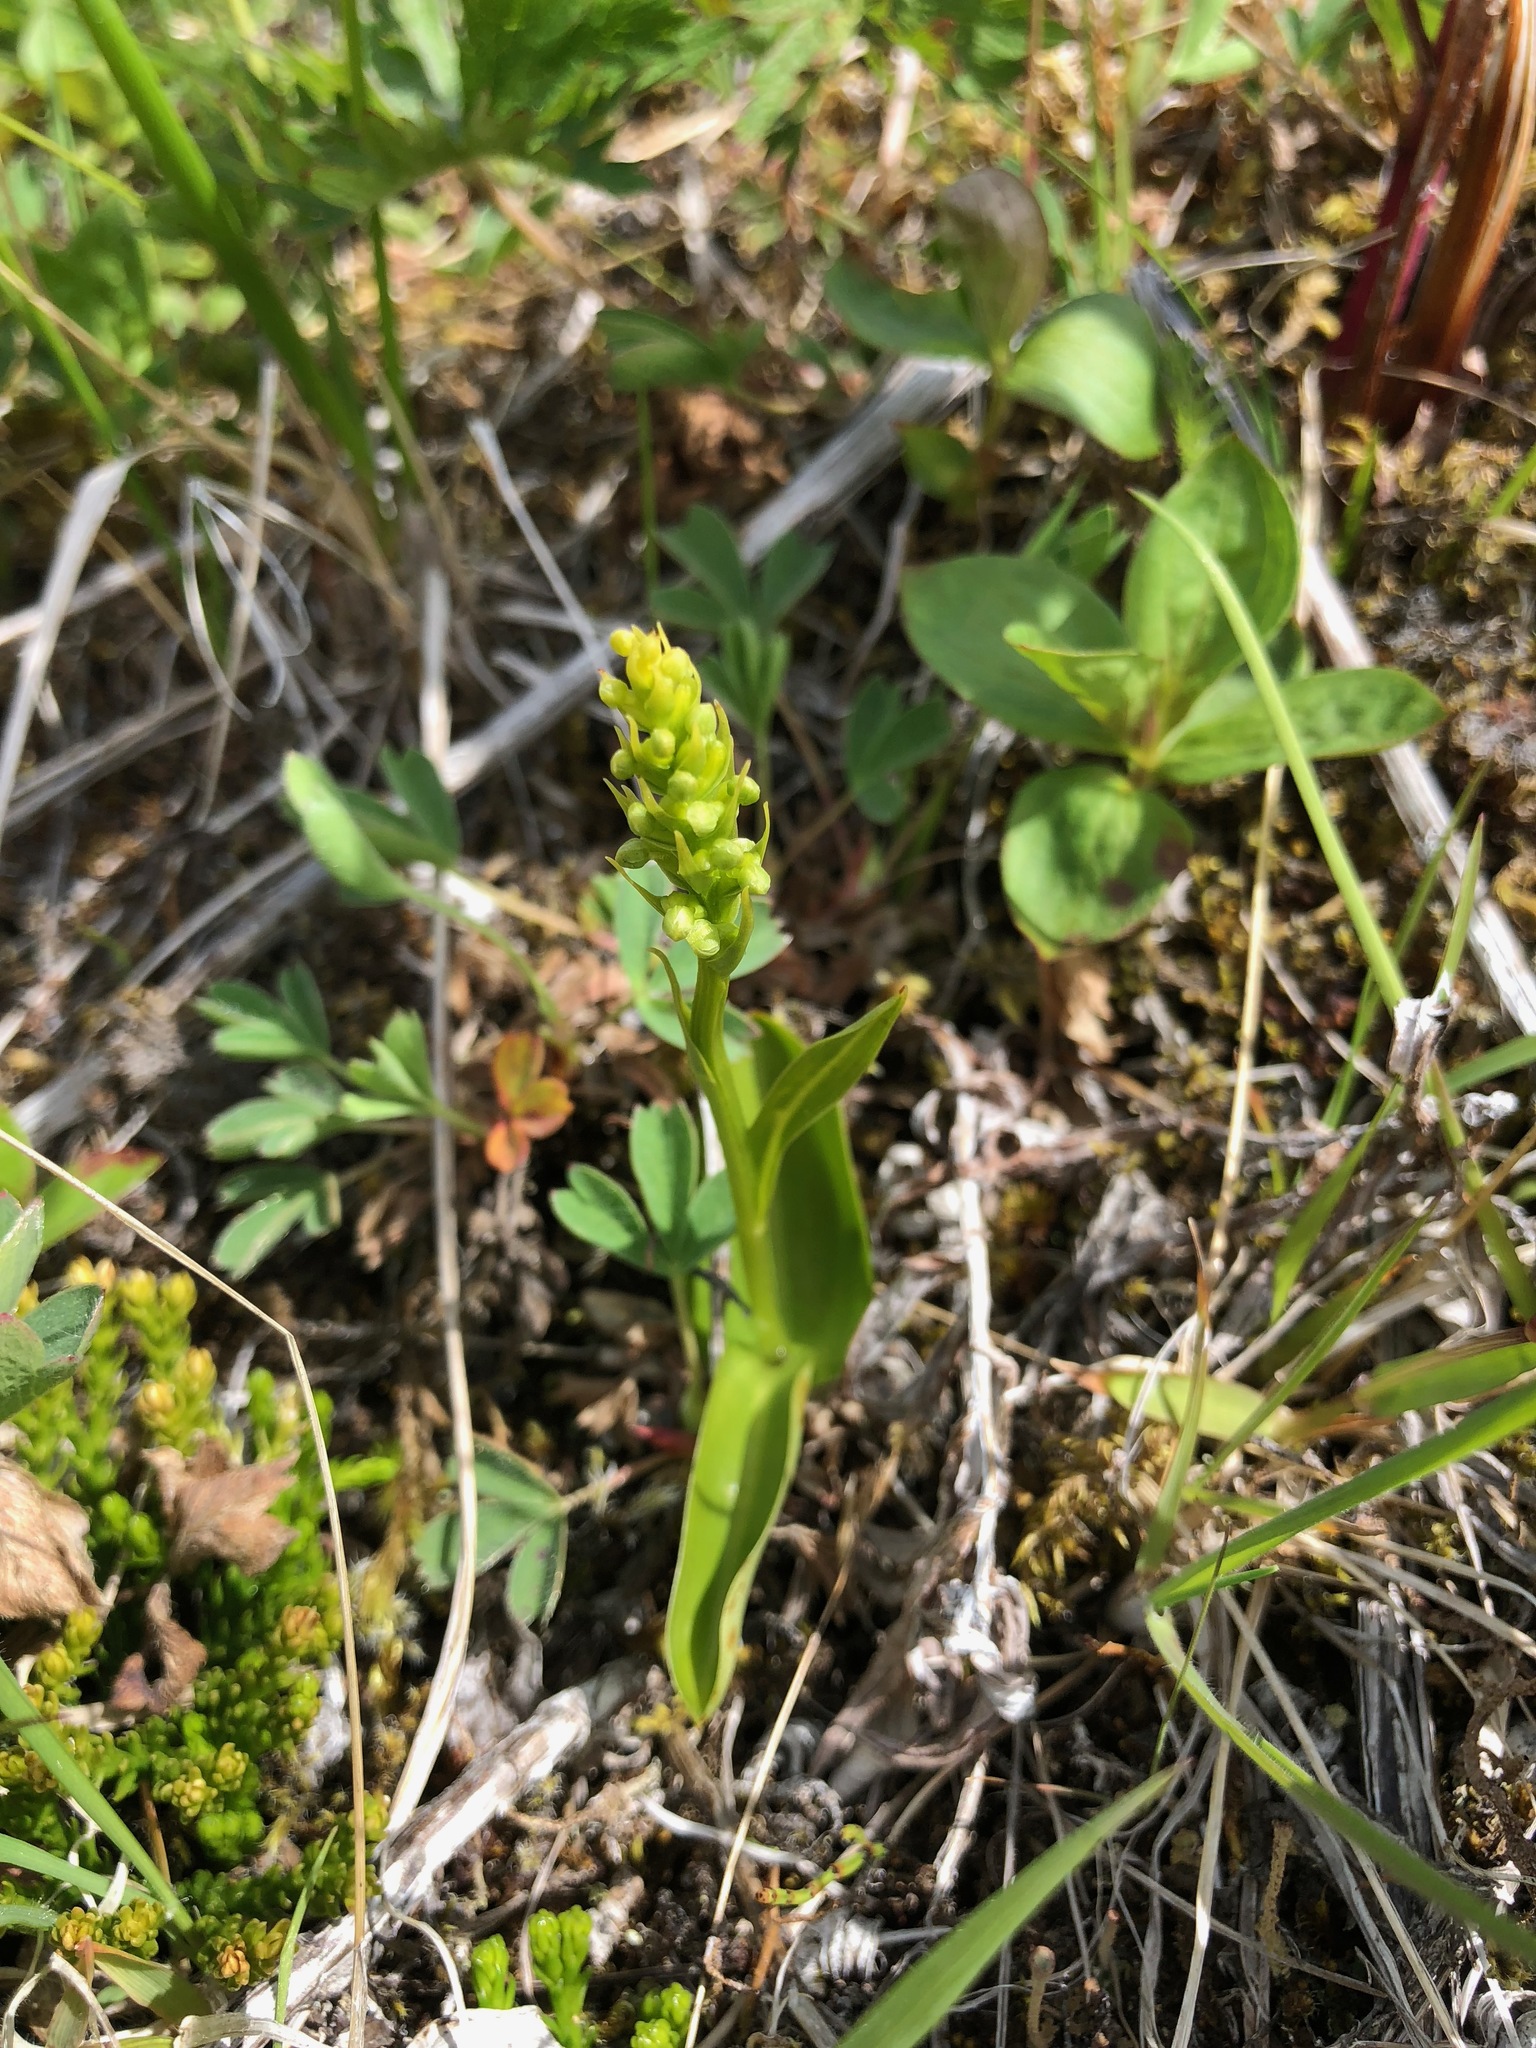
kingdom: Plantae
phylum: Tracheophyta
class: Liliopsida
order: Asparagales
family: Orchidaceae
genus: Platanthera
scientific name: Platanthera chorisiana
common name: Chamisso's orchid
